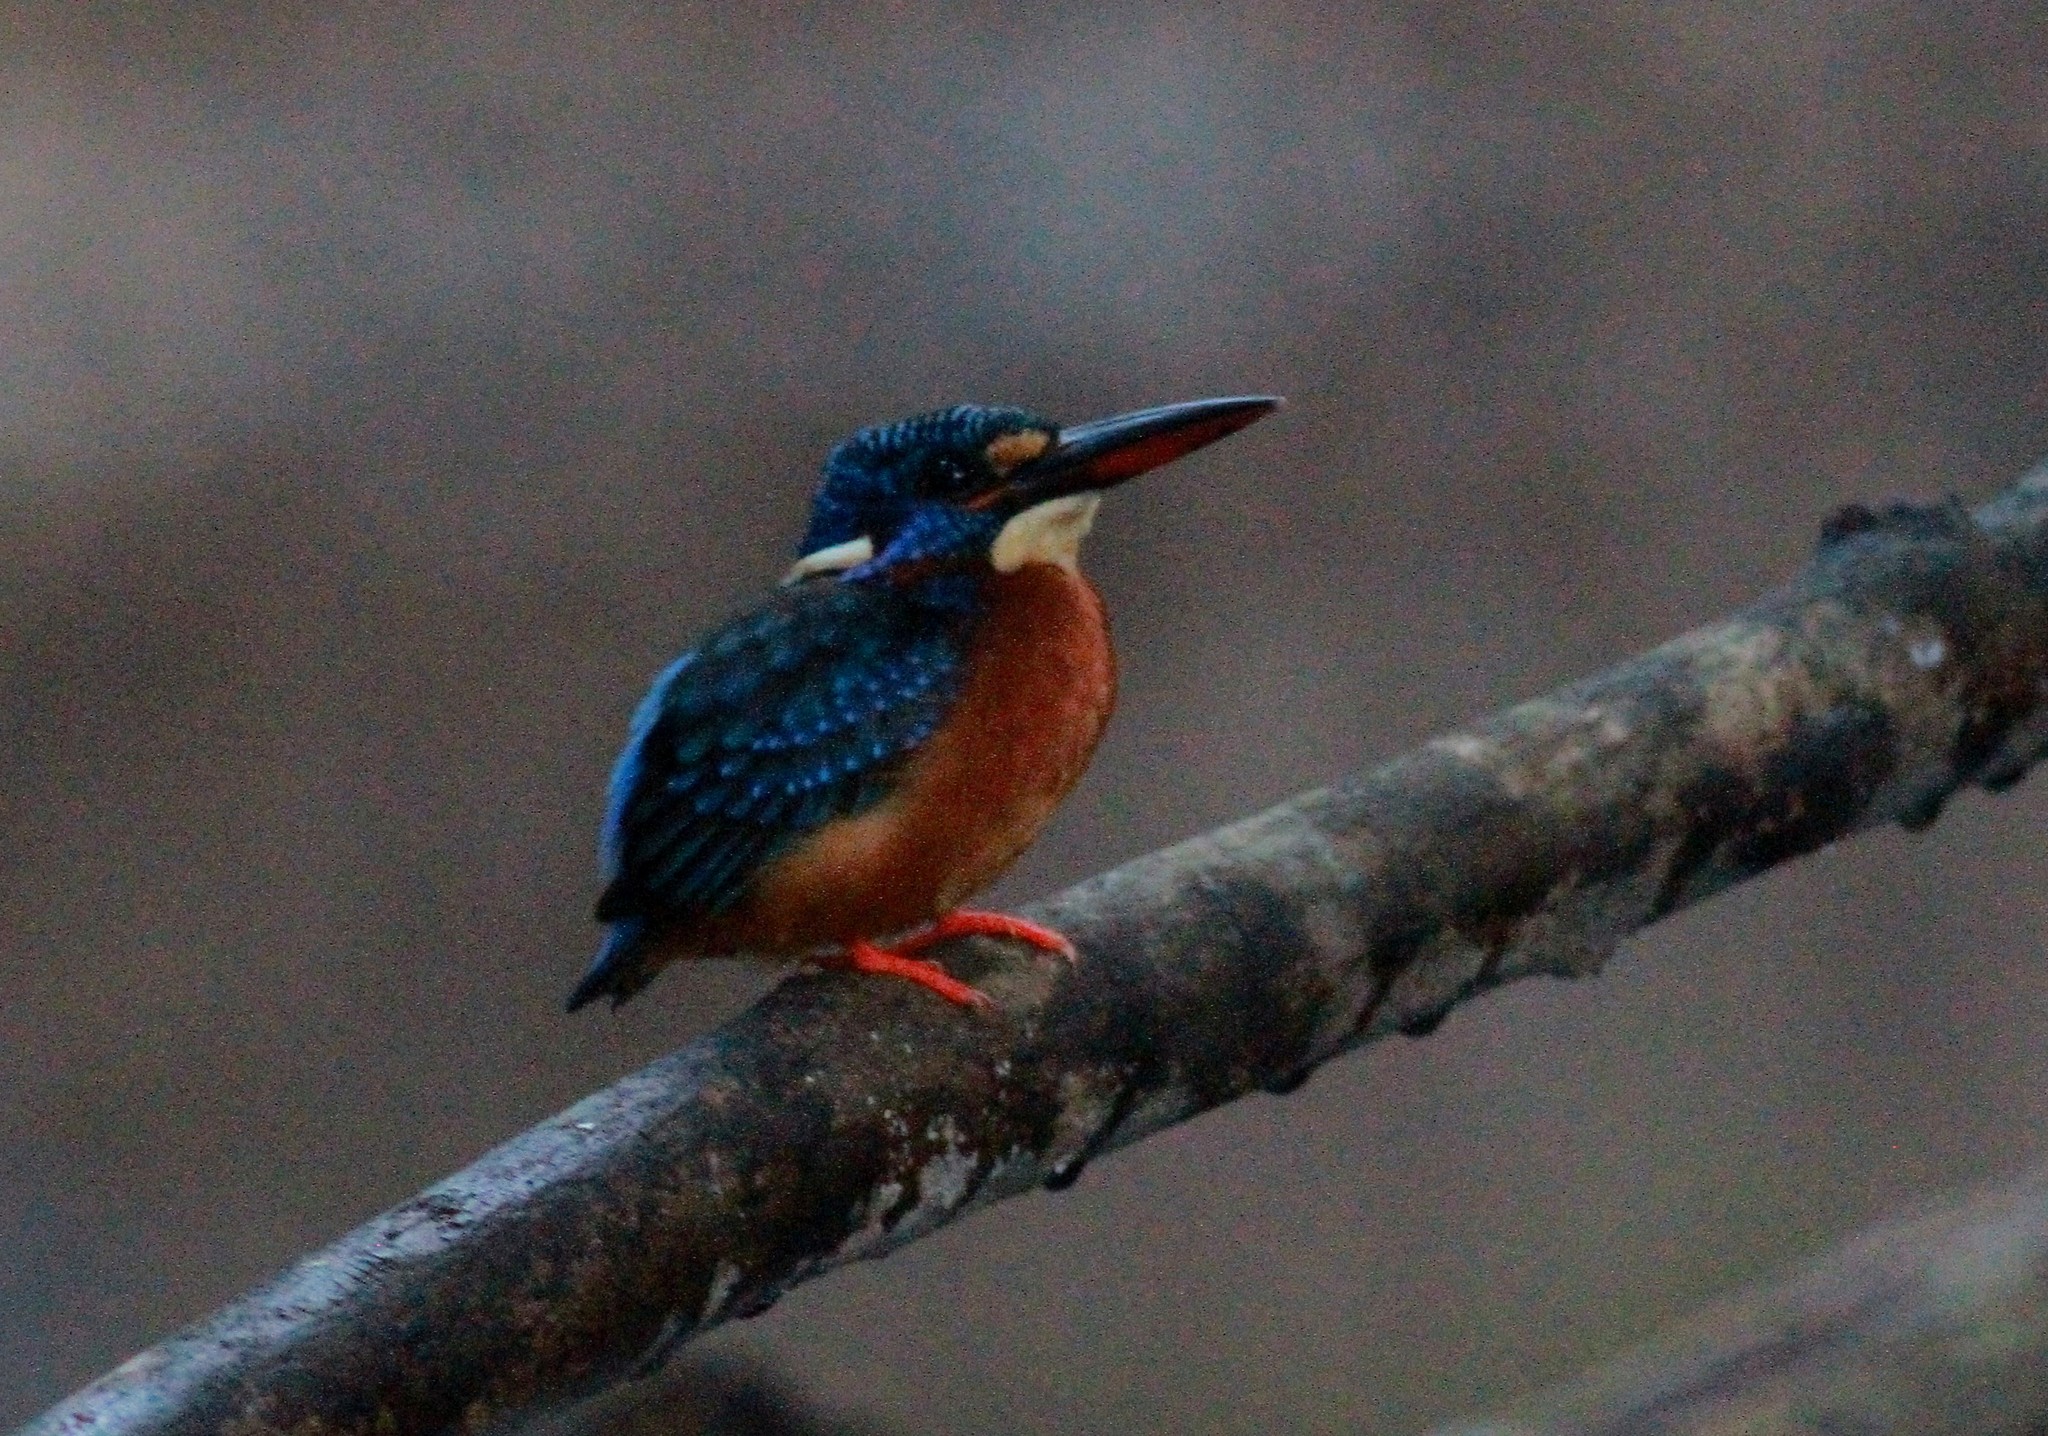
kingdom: Animalia
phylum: Chordata
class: Aves
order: Coraciiformes
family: Alcedinidae
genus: Alcedo
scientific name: Alcedo meninting
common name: Blue-eared kingfisher
